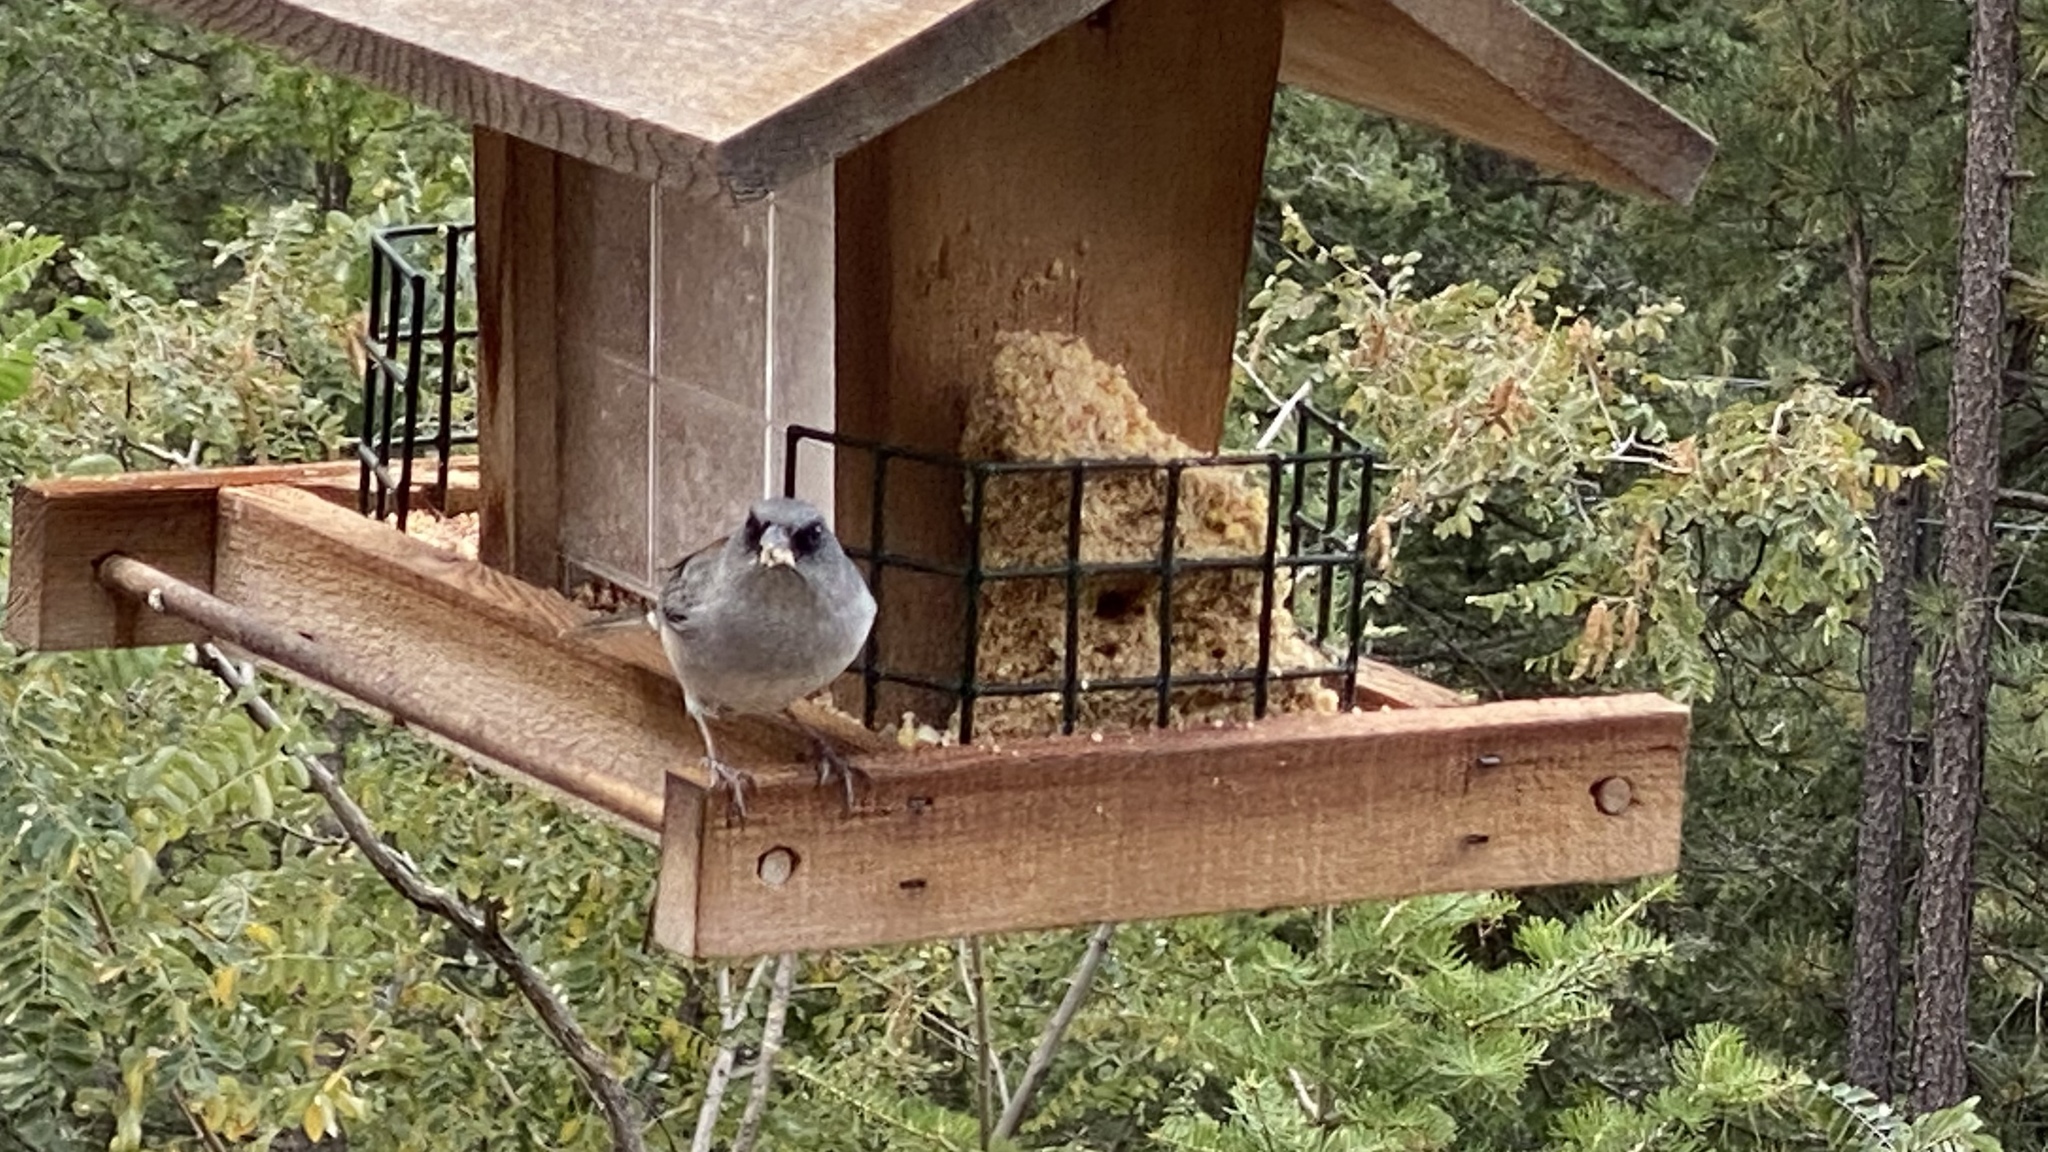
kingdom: Animalia
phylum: Chordata
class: Aves
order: Passeriformes
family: Passerellidae
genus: Junco
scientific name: Junco hyemalis
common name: Dark-eyed junco
